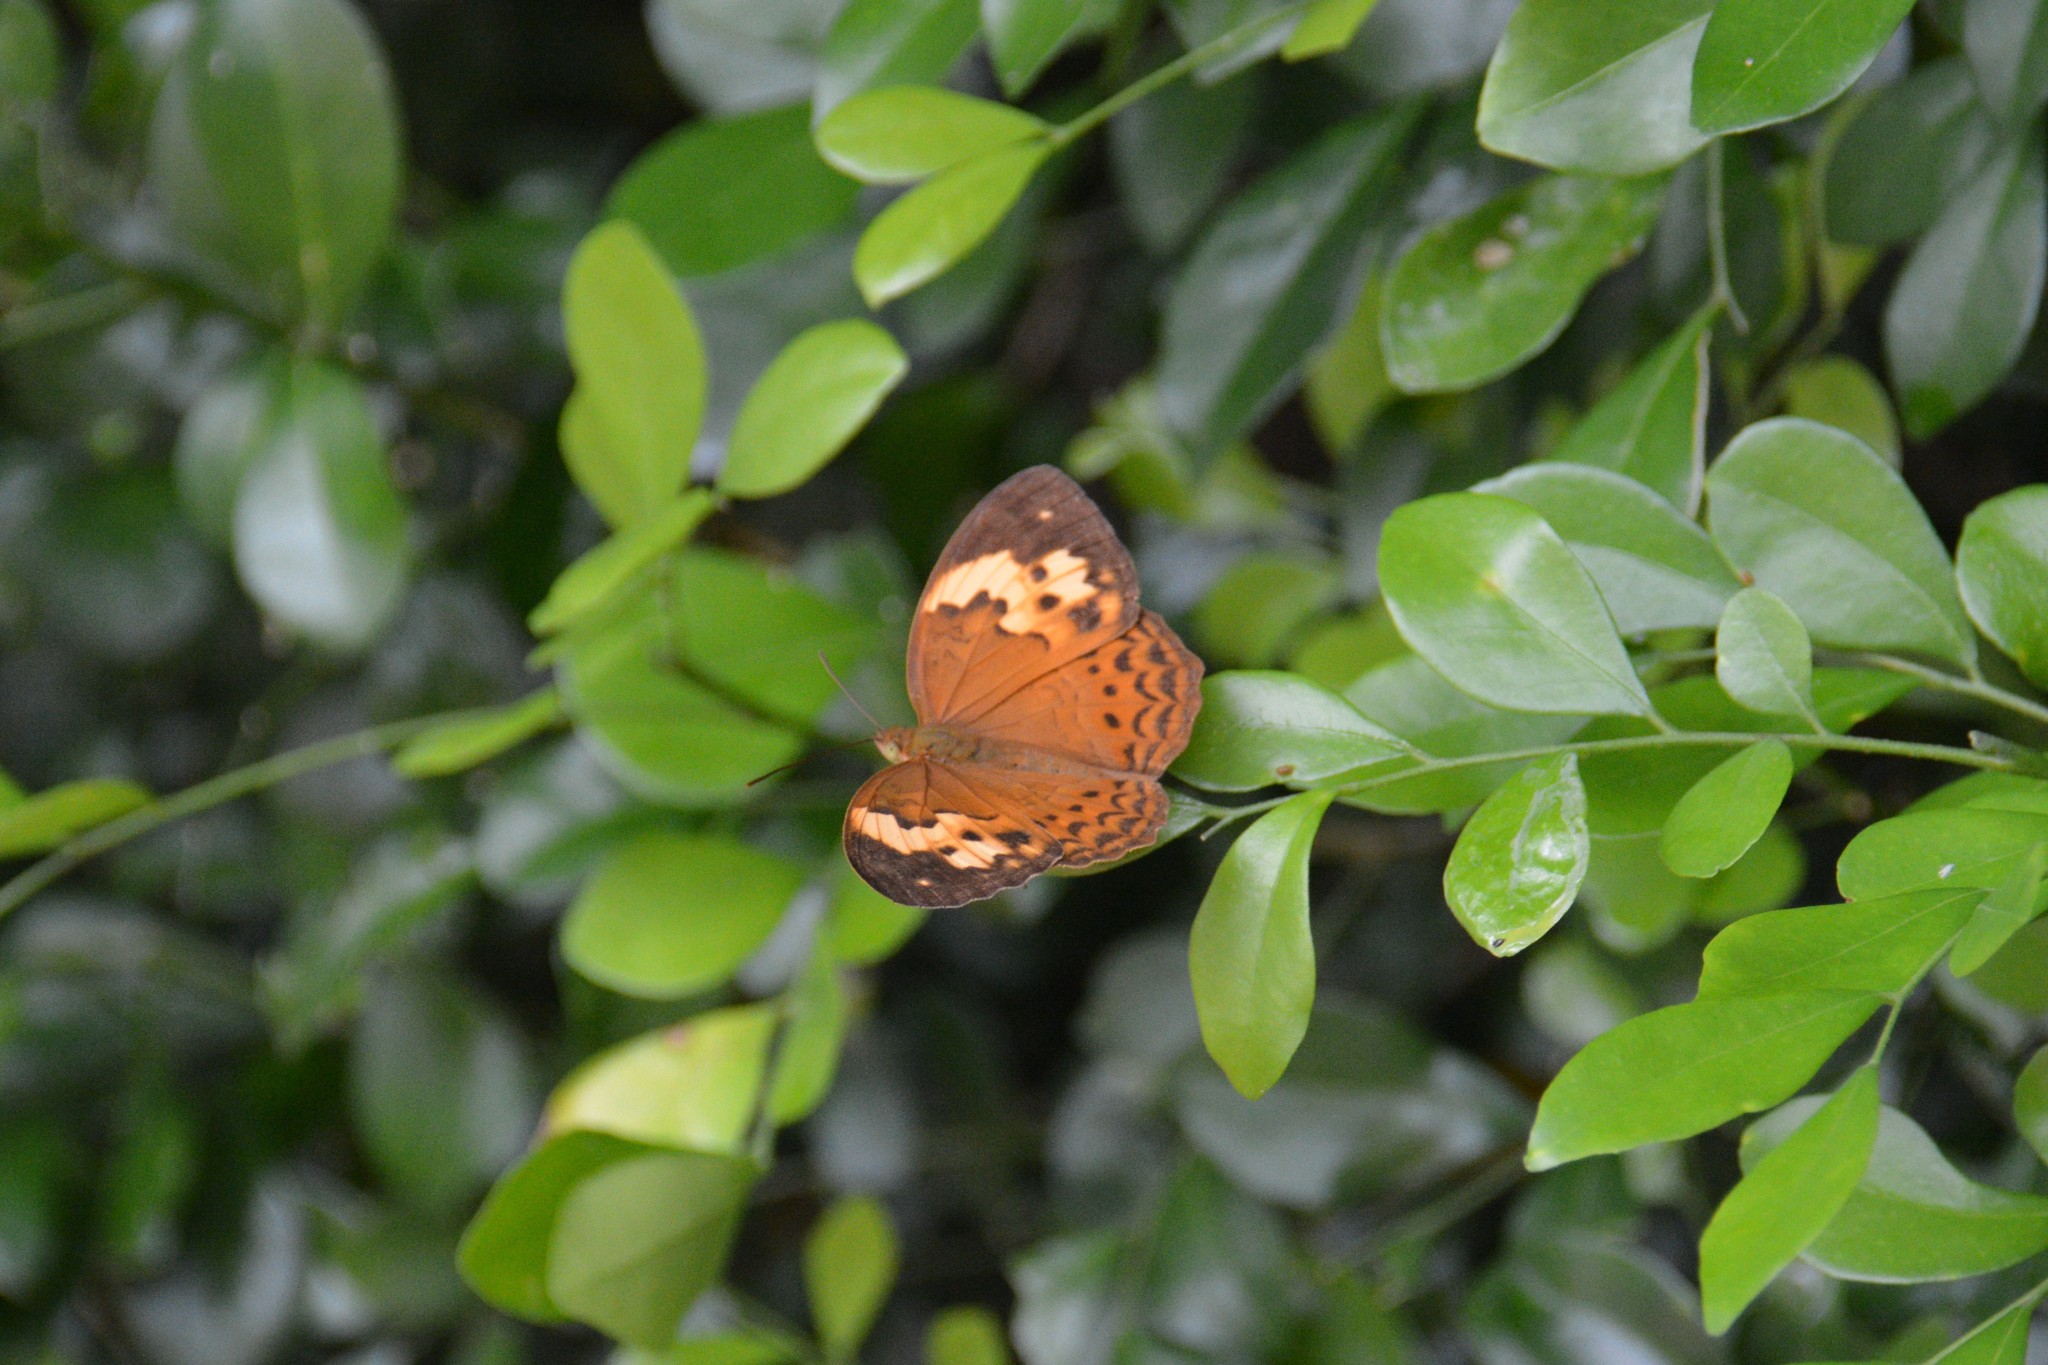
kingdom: Animalia
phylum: Arthropoda
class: Insecta
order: Lepidoptera
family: Nymphalidae
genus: Cupha
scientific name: Cupha erymanthis
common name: Rustic
